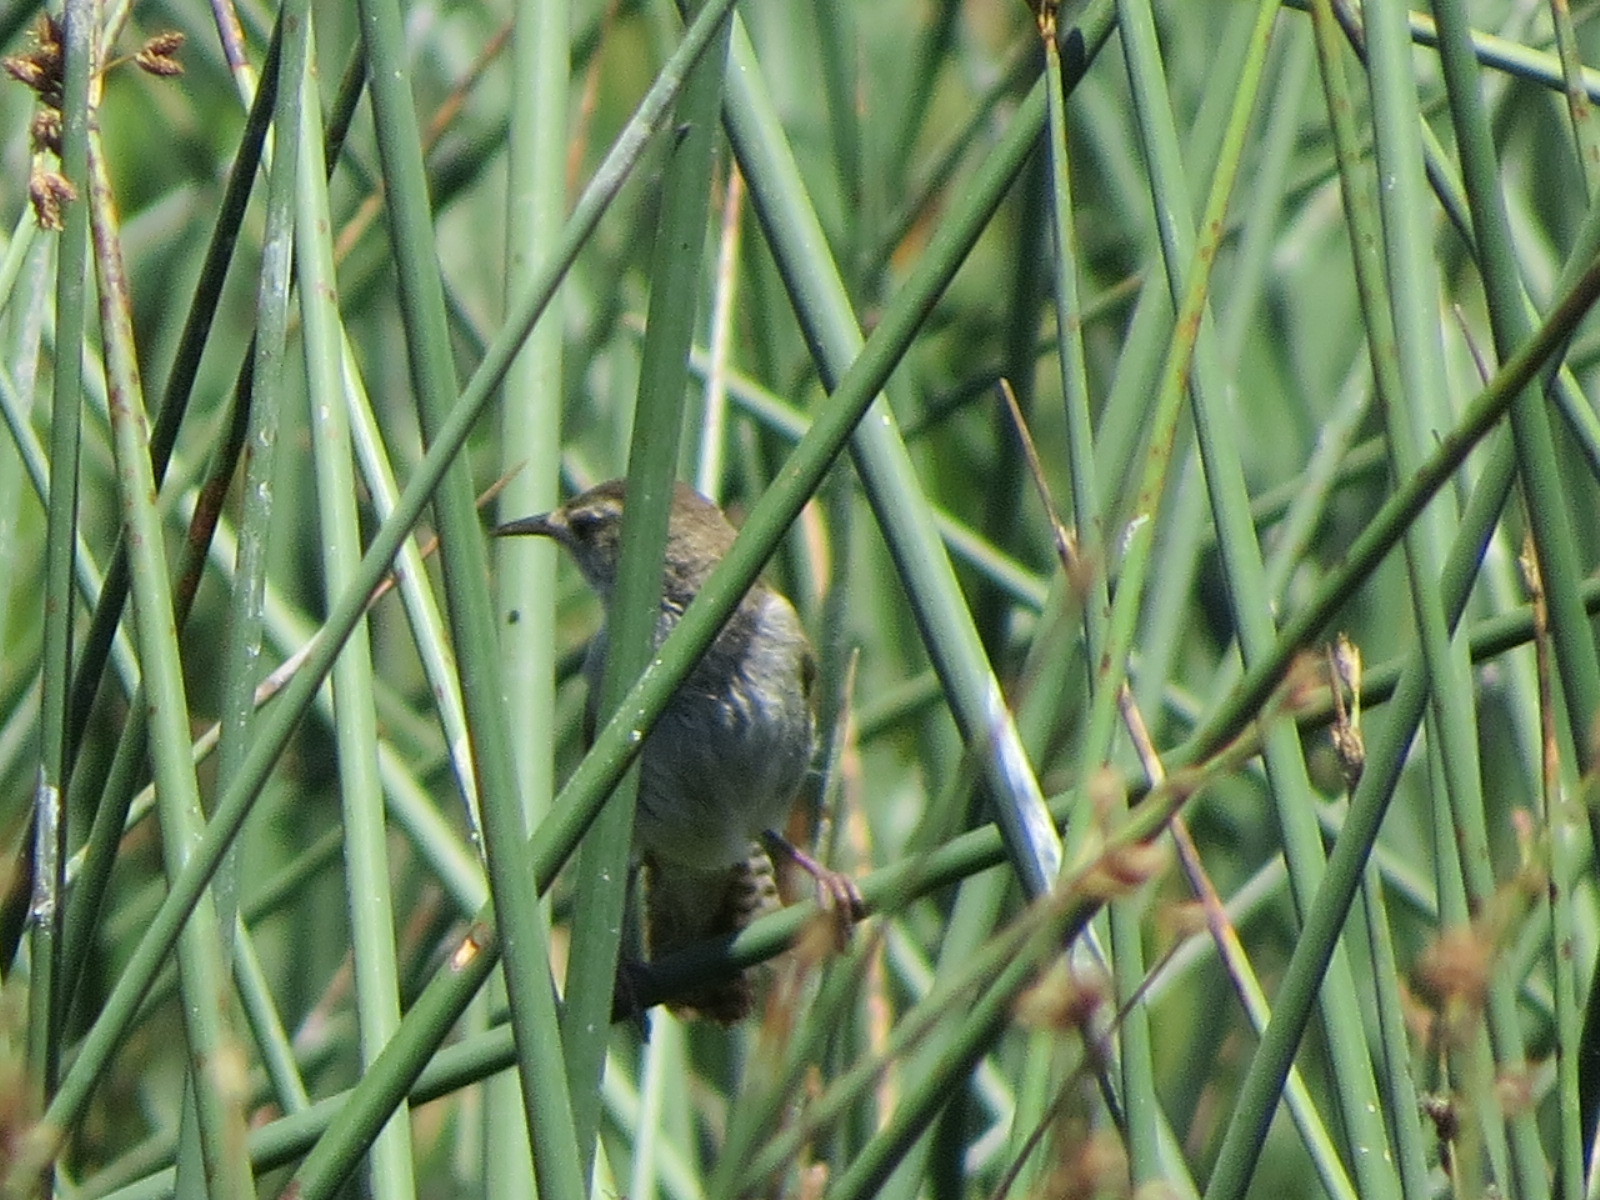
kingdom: Animalia
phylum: Chordata
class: Aves
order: Passeriformes
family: Troglodytidae
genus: Cistothorus
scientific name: Cistothorus palustris
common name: Marsh wren
